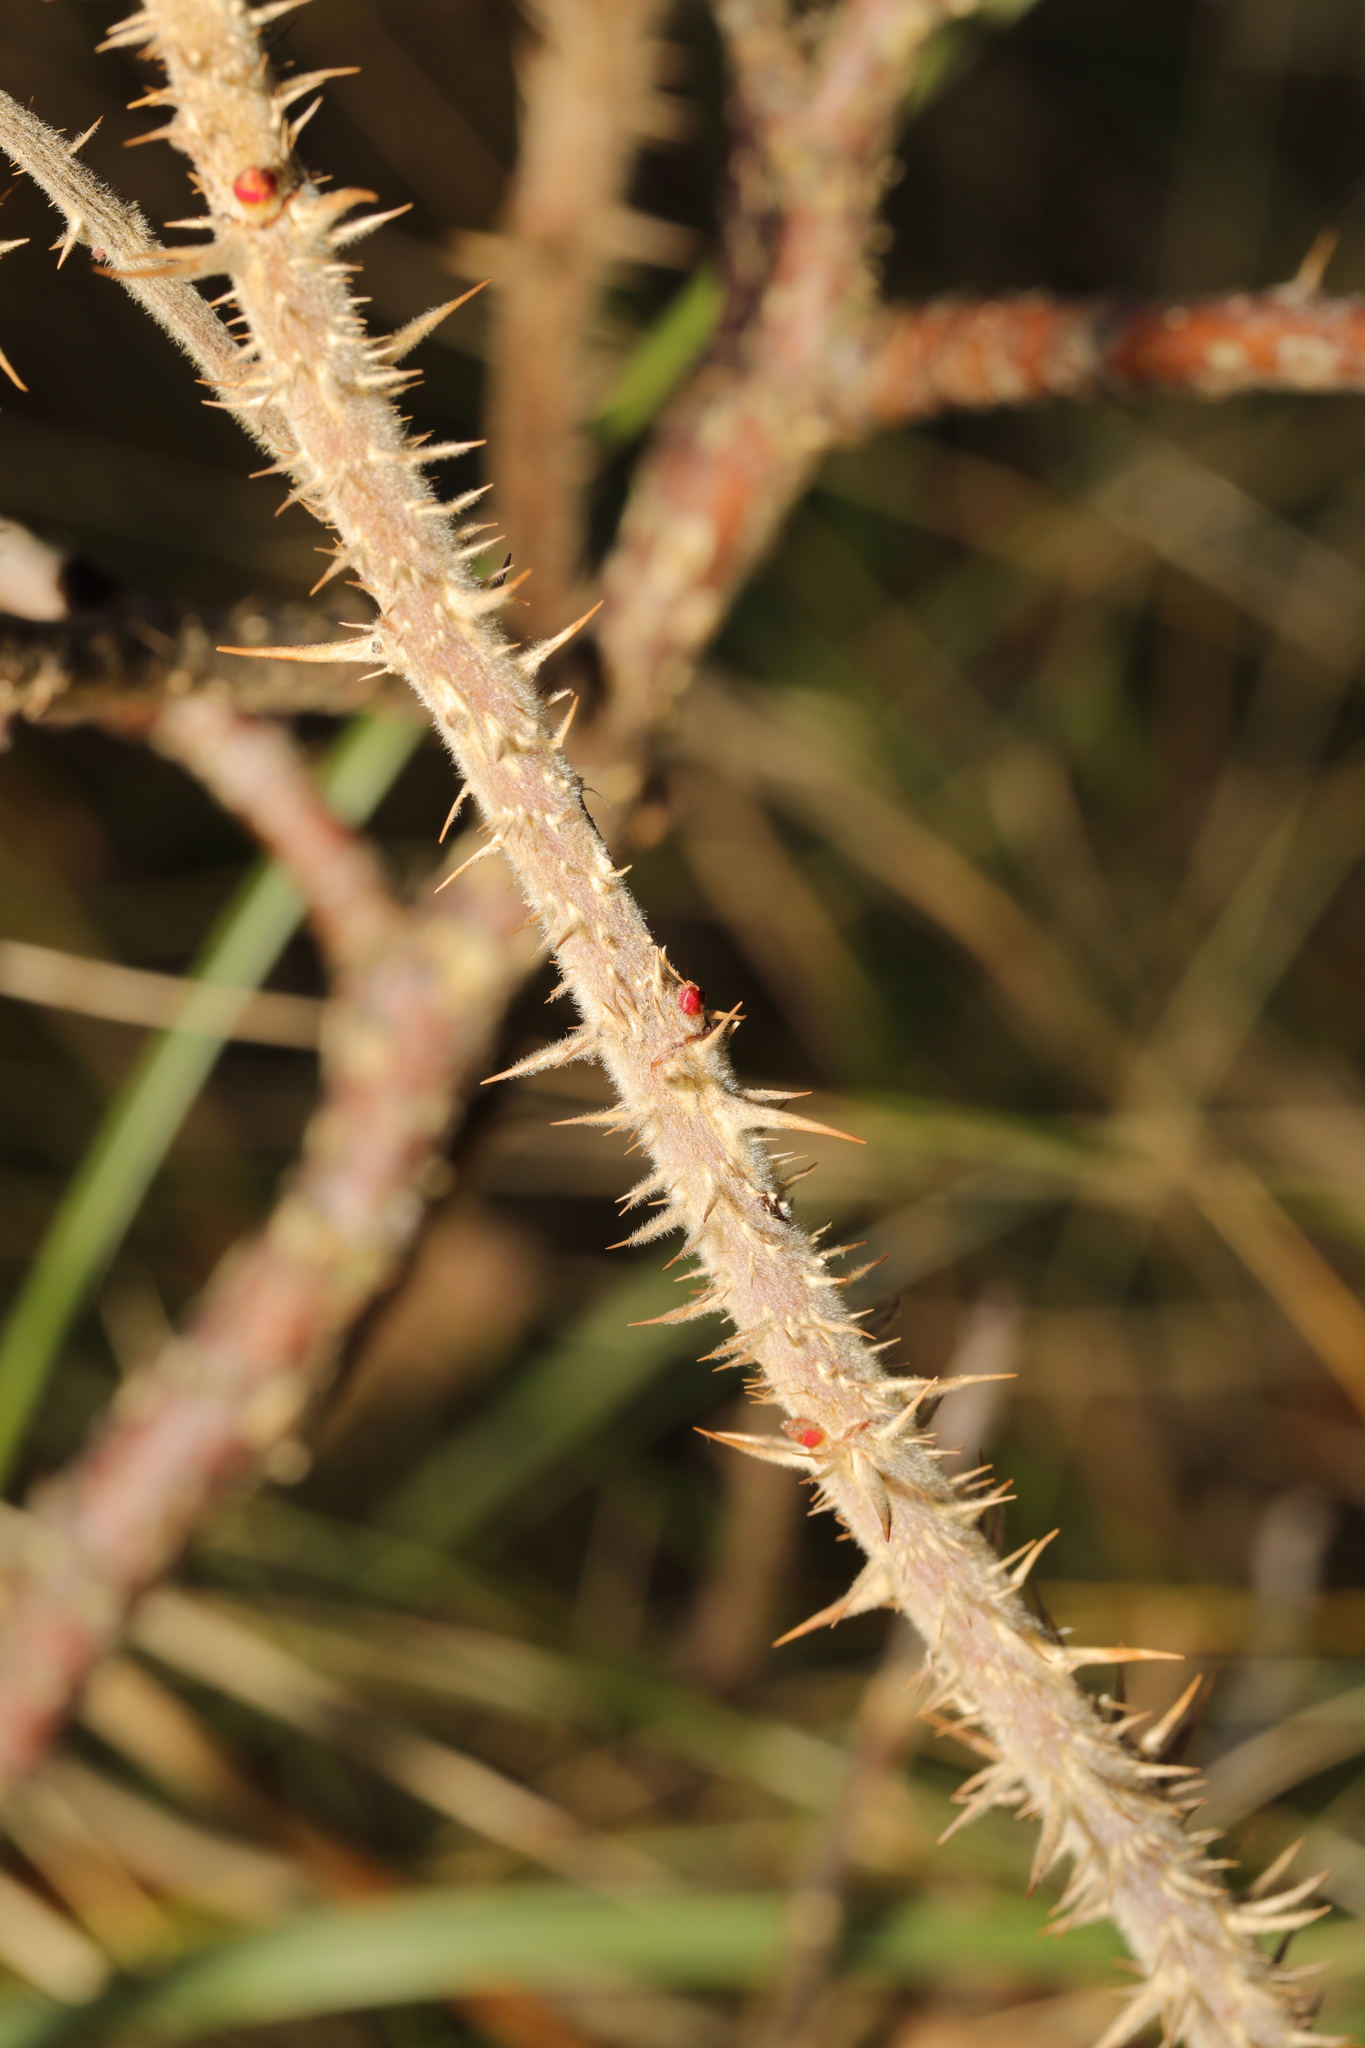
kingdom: Plantae
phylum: Tracheophyta
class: Magnoliopsida
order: Rosales
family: Rosaceae
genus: Rosa
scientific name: Rosa rugosa
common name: Japanese rose
